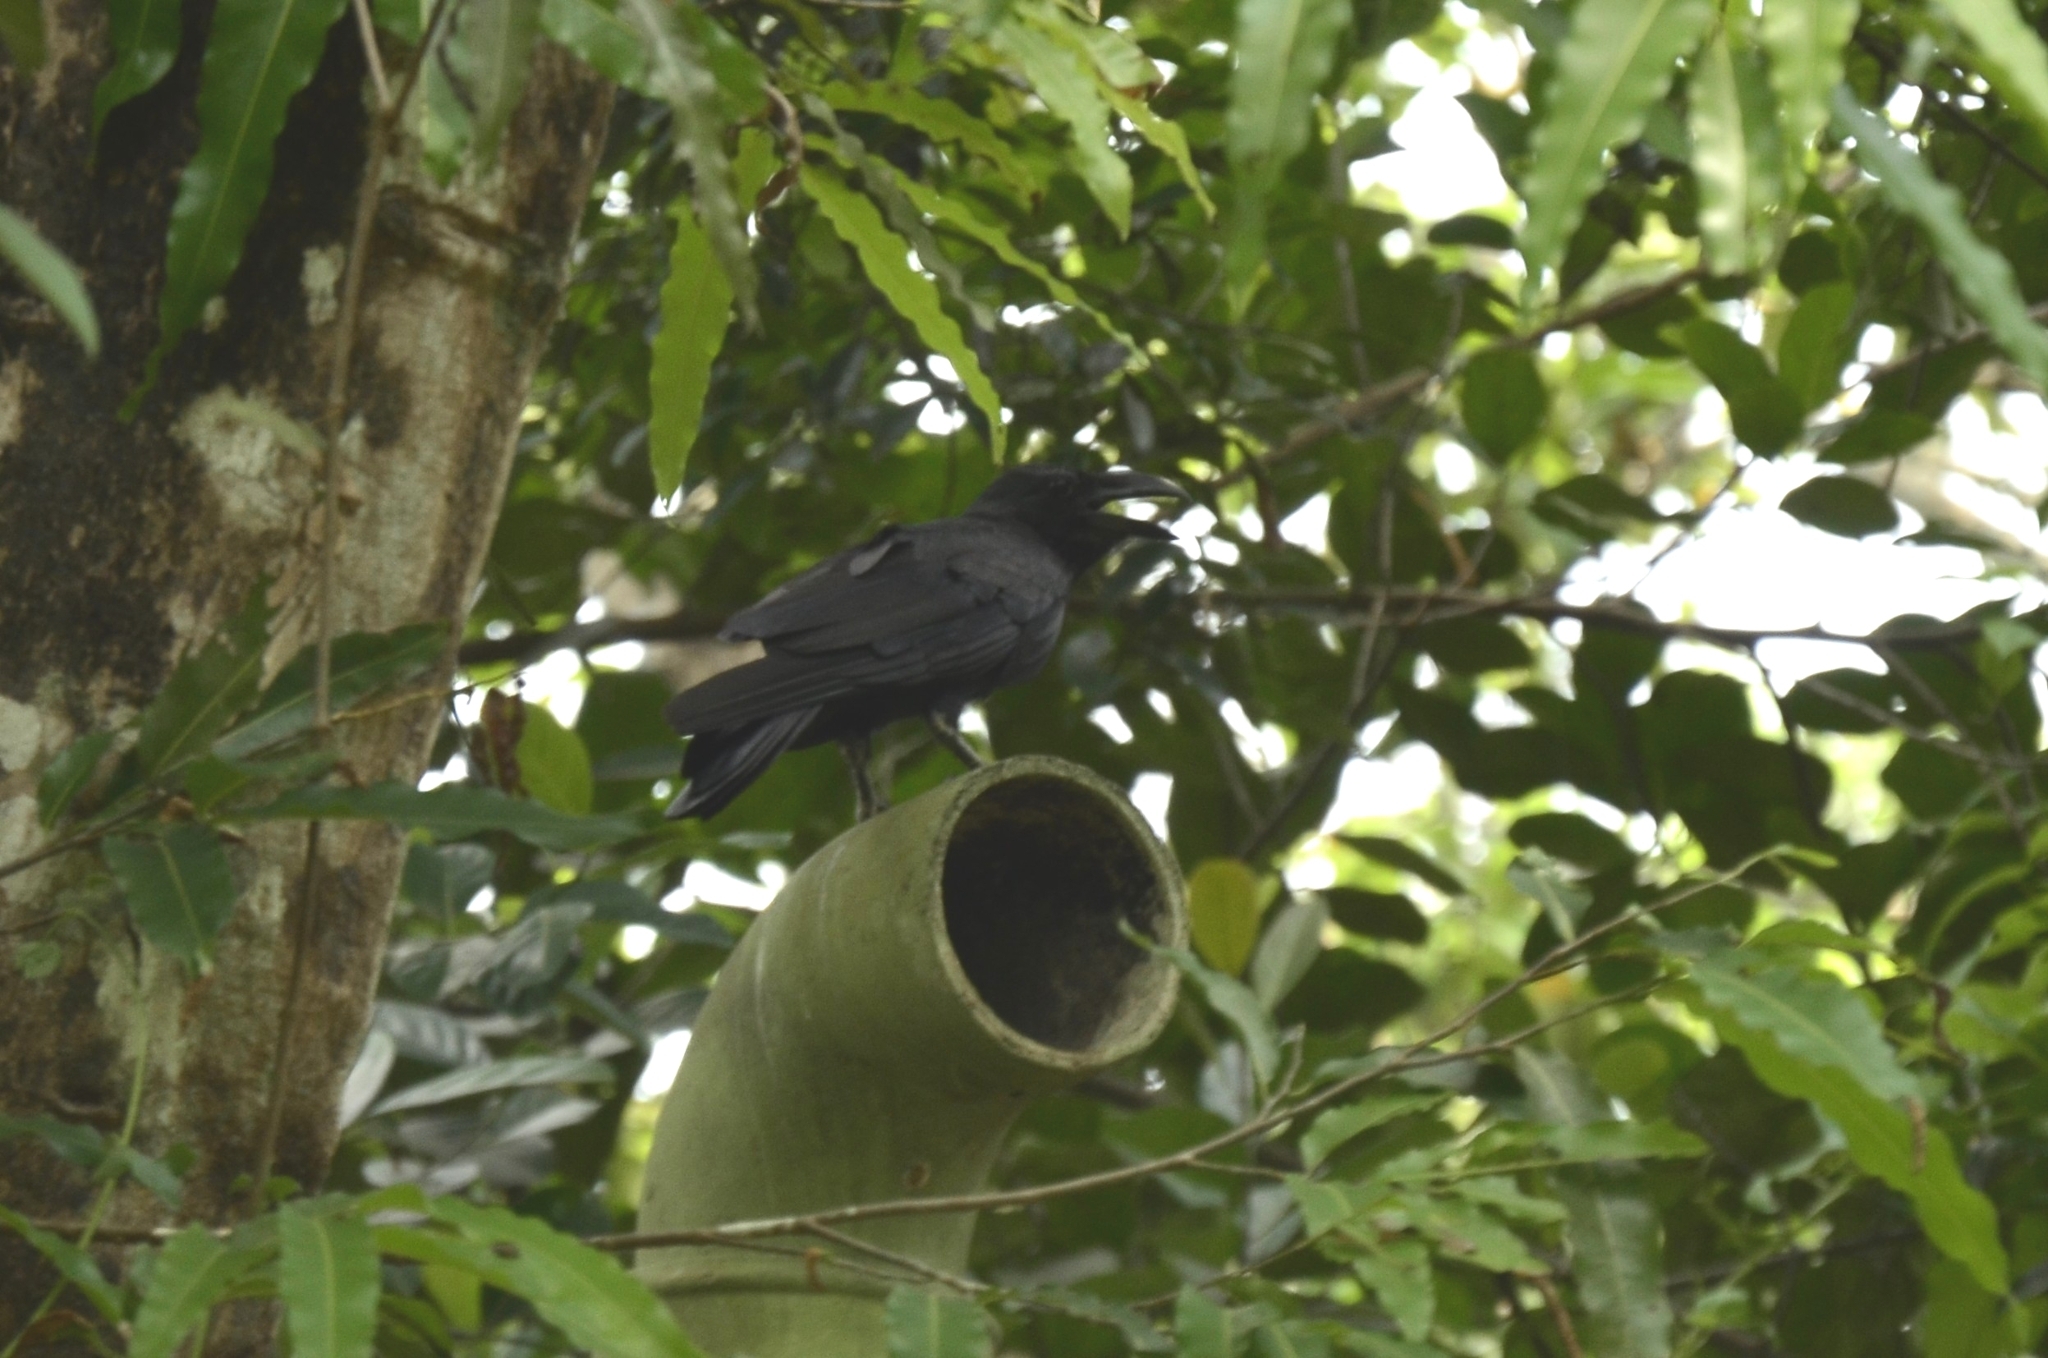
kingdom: Animalia
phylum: Chordata
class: Aves
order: Passeriformes
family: Corvidae
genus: Corvus
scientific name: Corvus macrorhynchos
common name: Large-billed crow
